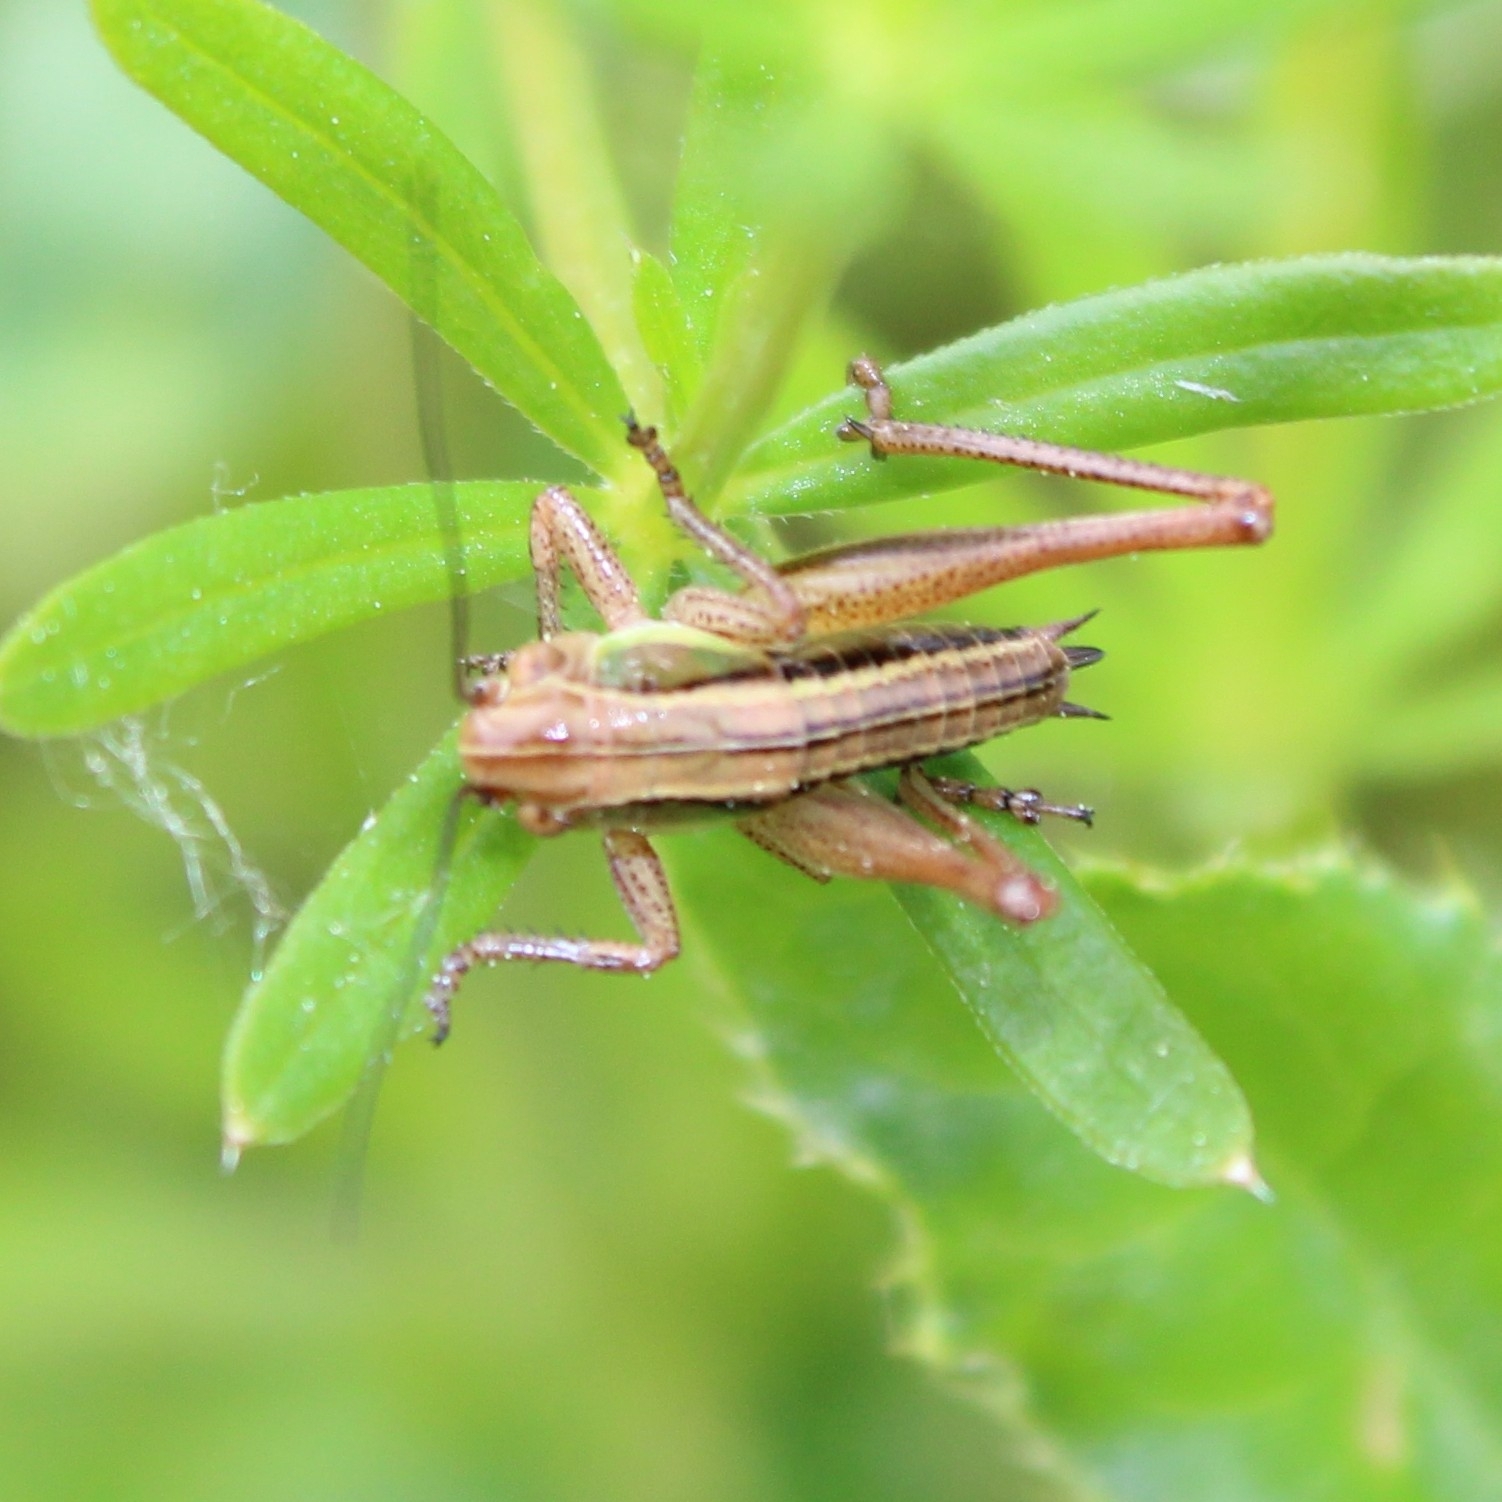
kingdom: Animalia
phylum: Arthropoda
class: Insecta
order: Orthoptera
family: Tettigoniidae
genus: Roeseliana
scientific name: Roeseliana roeselii
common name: Roesel's bush cricket
